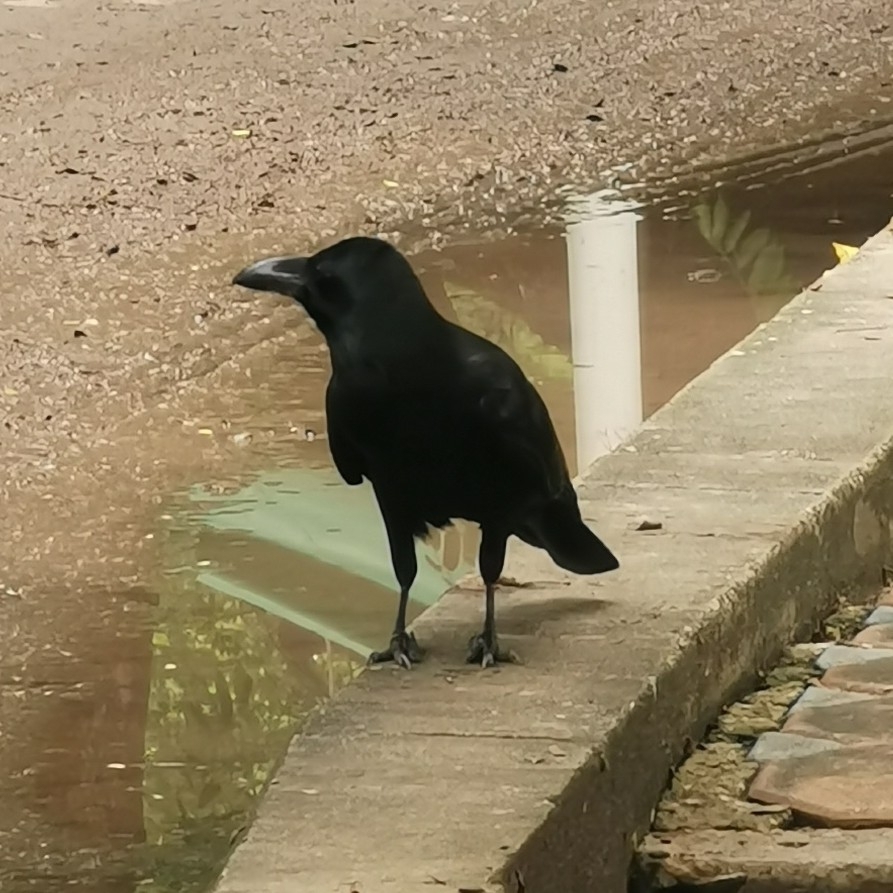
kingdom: Animalia
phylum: Chordata
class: Aves
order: Passeriformes
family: Corvidae
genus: Corvus
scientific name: Corvus macrorhynchos
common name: Large-billed crow
